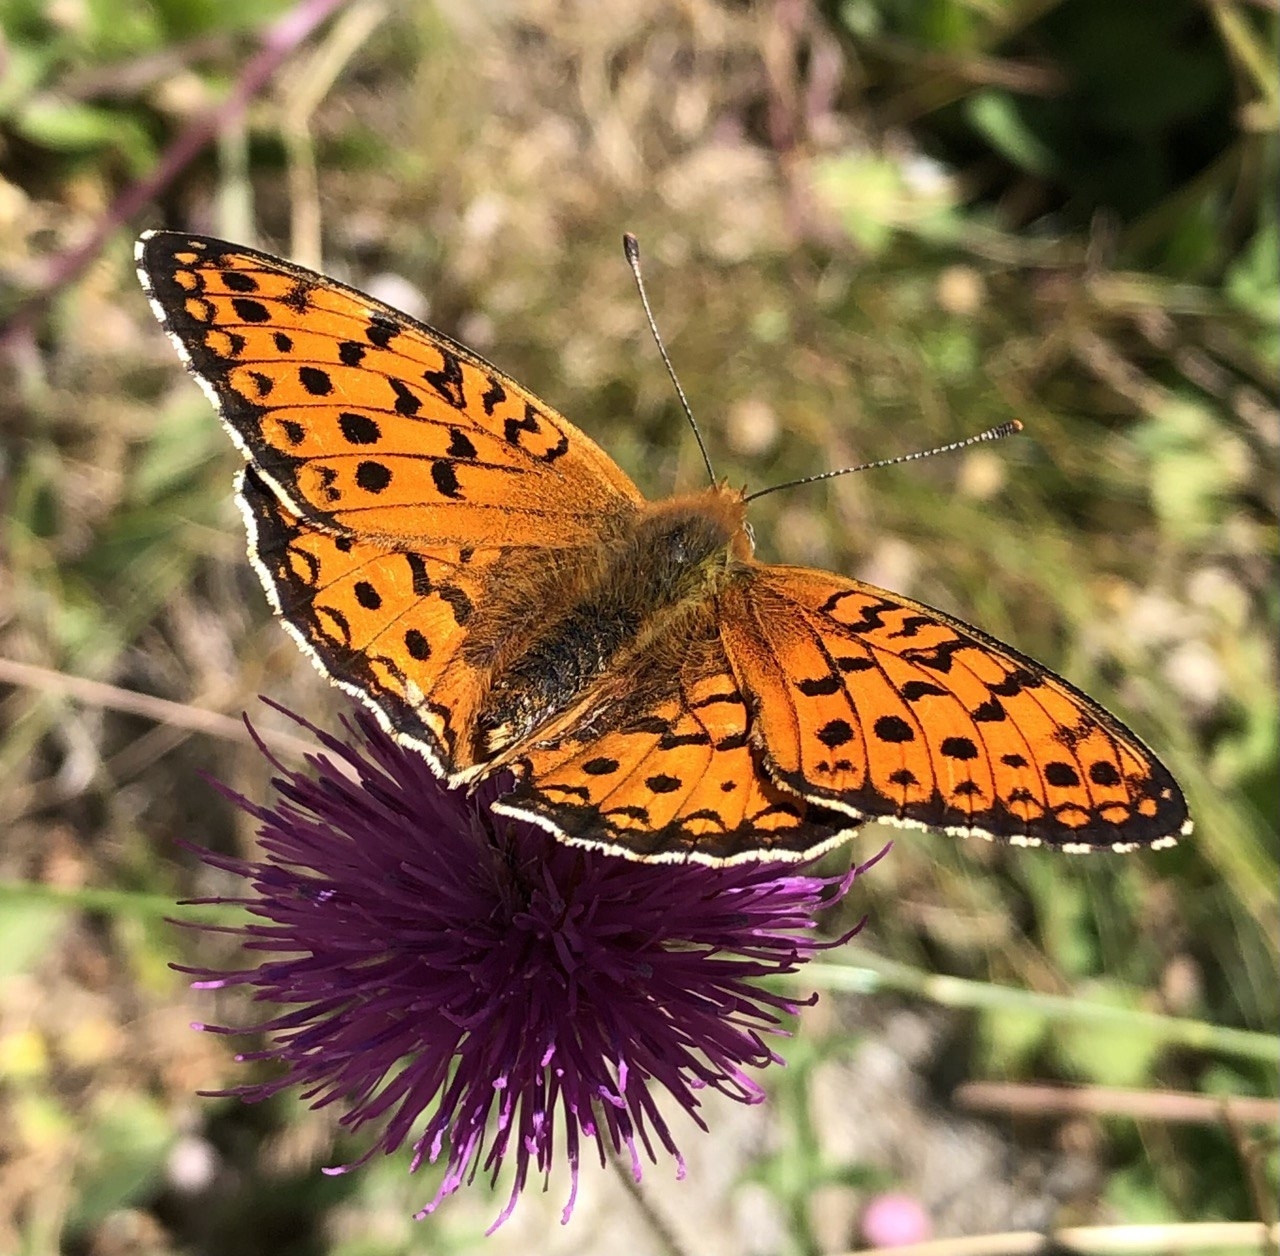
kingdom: Animalia
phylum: Arthropoda
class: Insecta
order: Lepidoptera
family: Nymphalidae
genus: Fabriciana
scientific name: Fabriciana niobe
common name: Niobe fritillary
